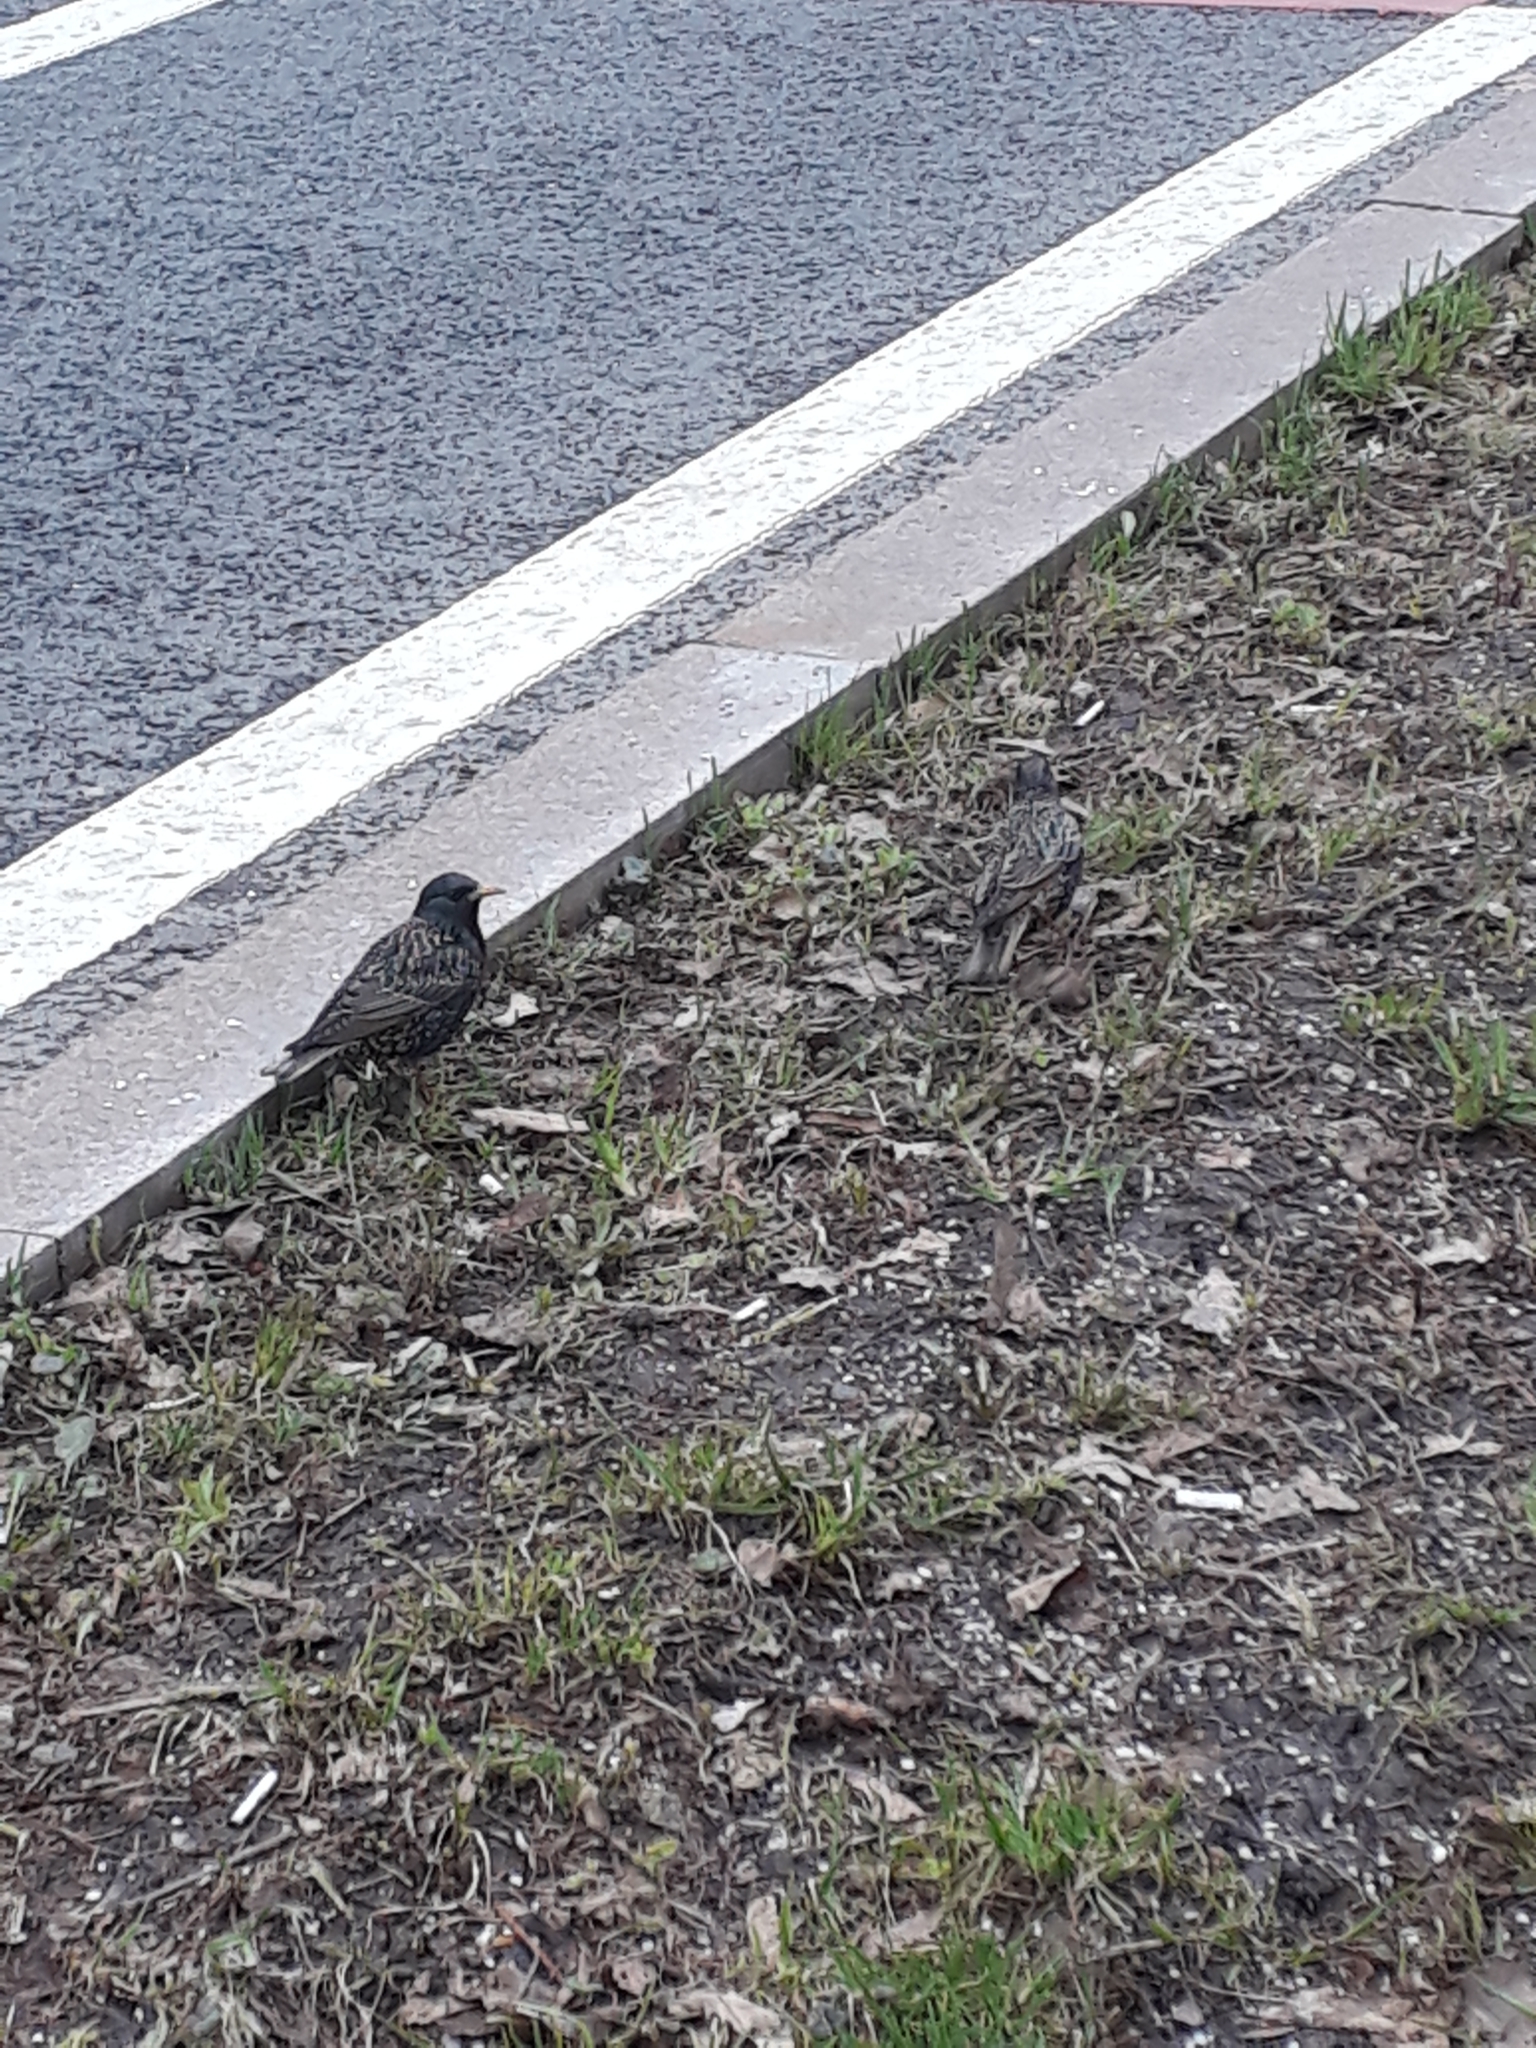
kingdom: Animalia
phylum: Chordata
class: Aves
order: Passeriformes
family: Sturnidae
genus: Sturnus
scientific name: Sturnus vulgaris
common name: Common starling
